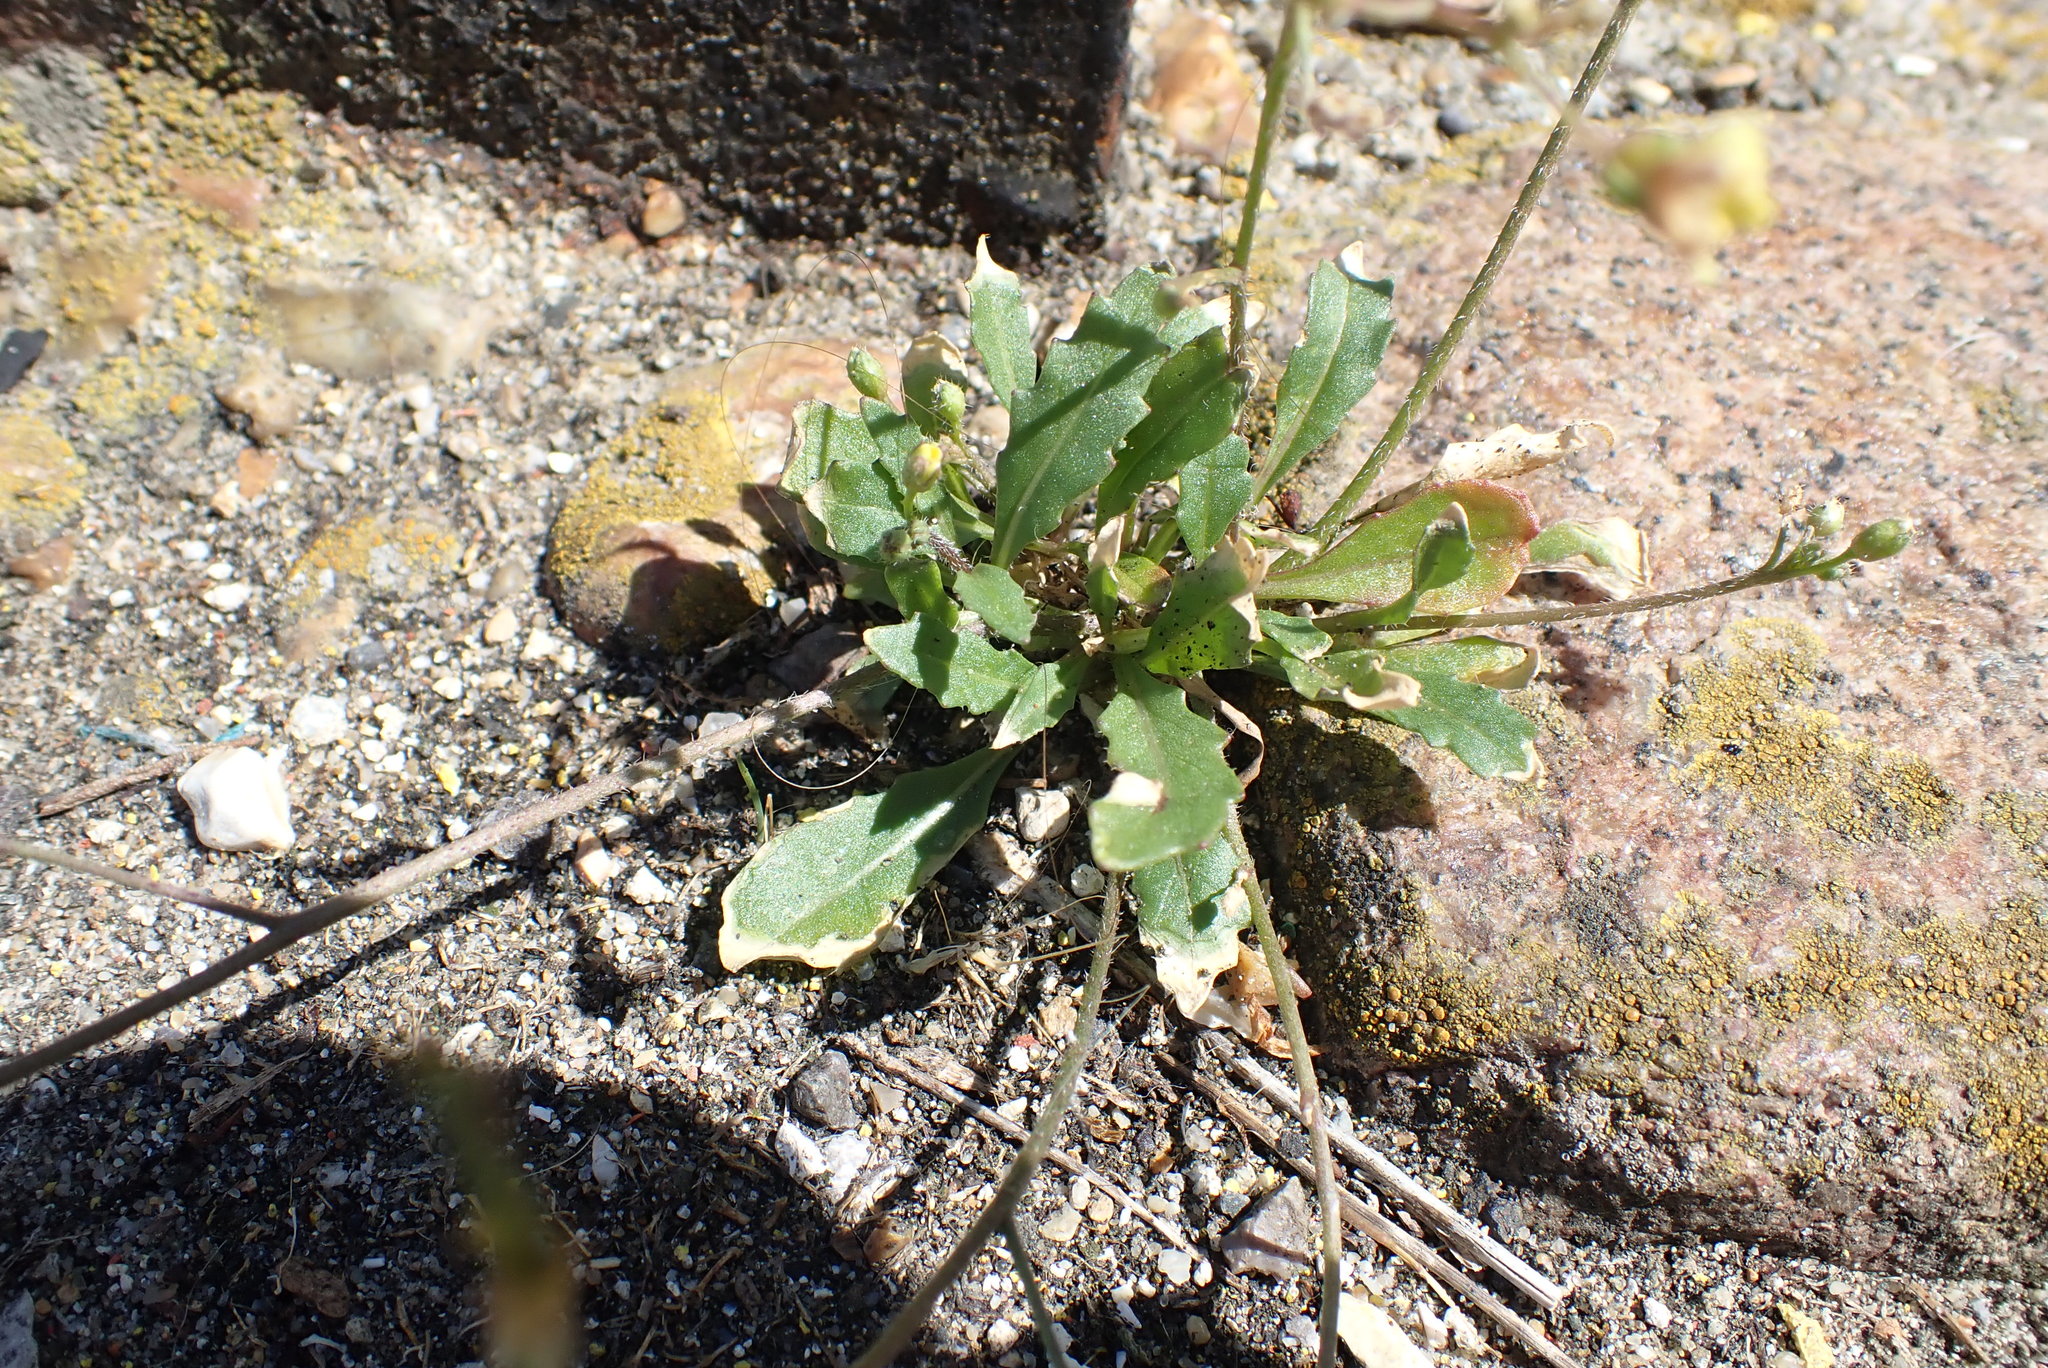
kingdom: Plantae
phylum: Tracheophyta
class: Magnoliopsida
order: Brassicales
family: Brassicaceae
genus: Diplotaxis
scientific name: Diplotaxis muralis
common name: Annual wall-rocket
